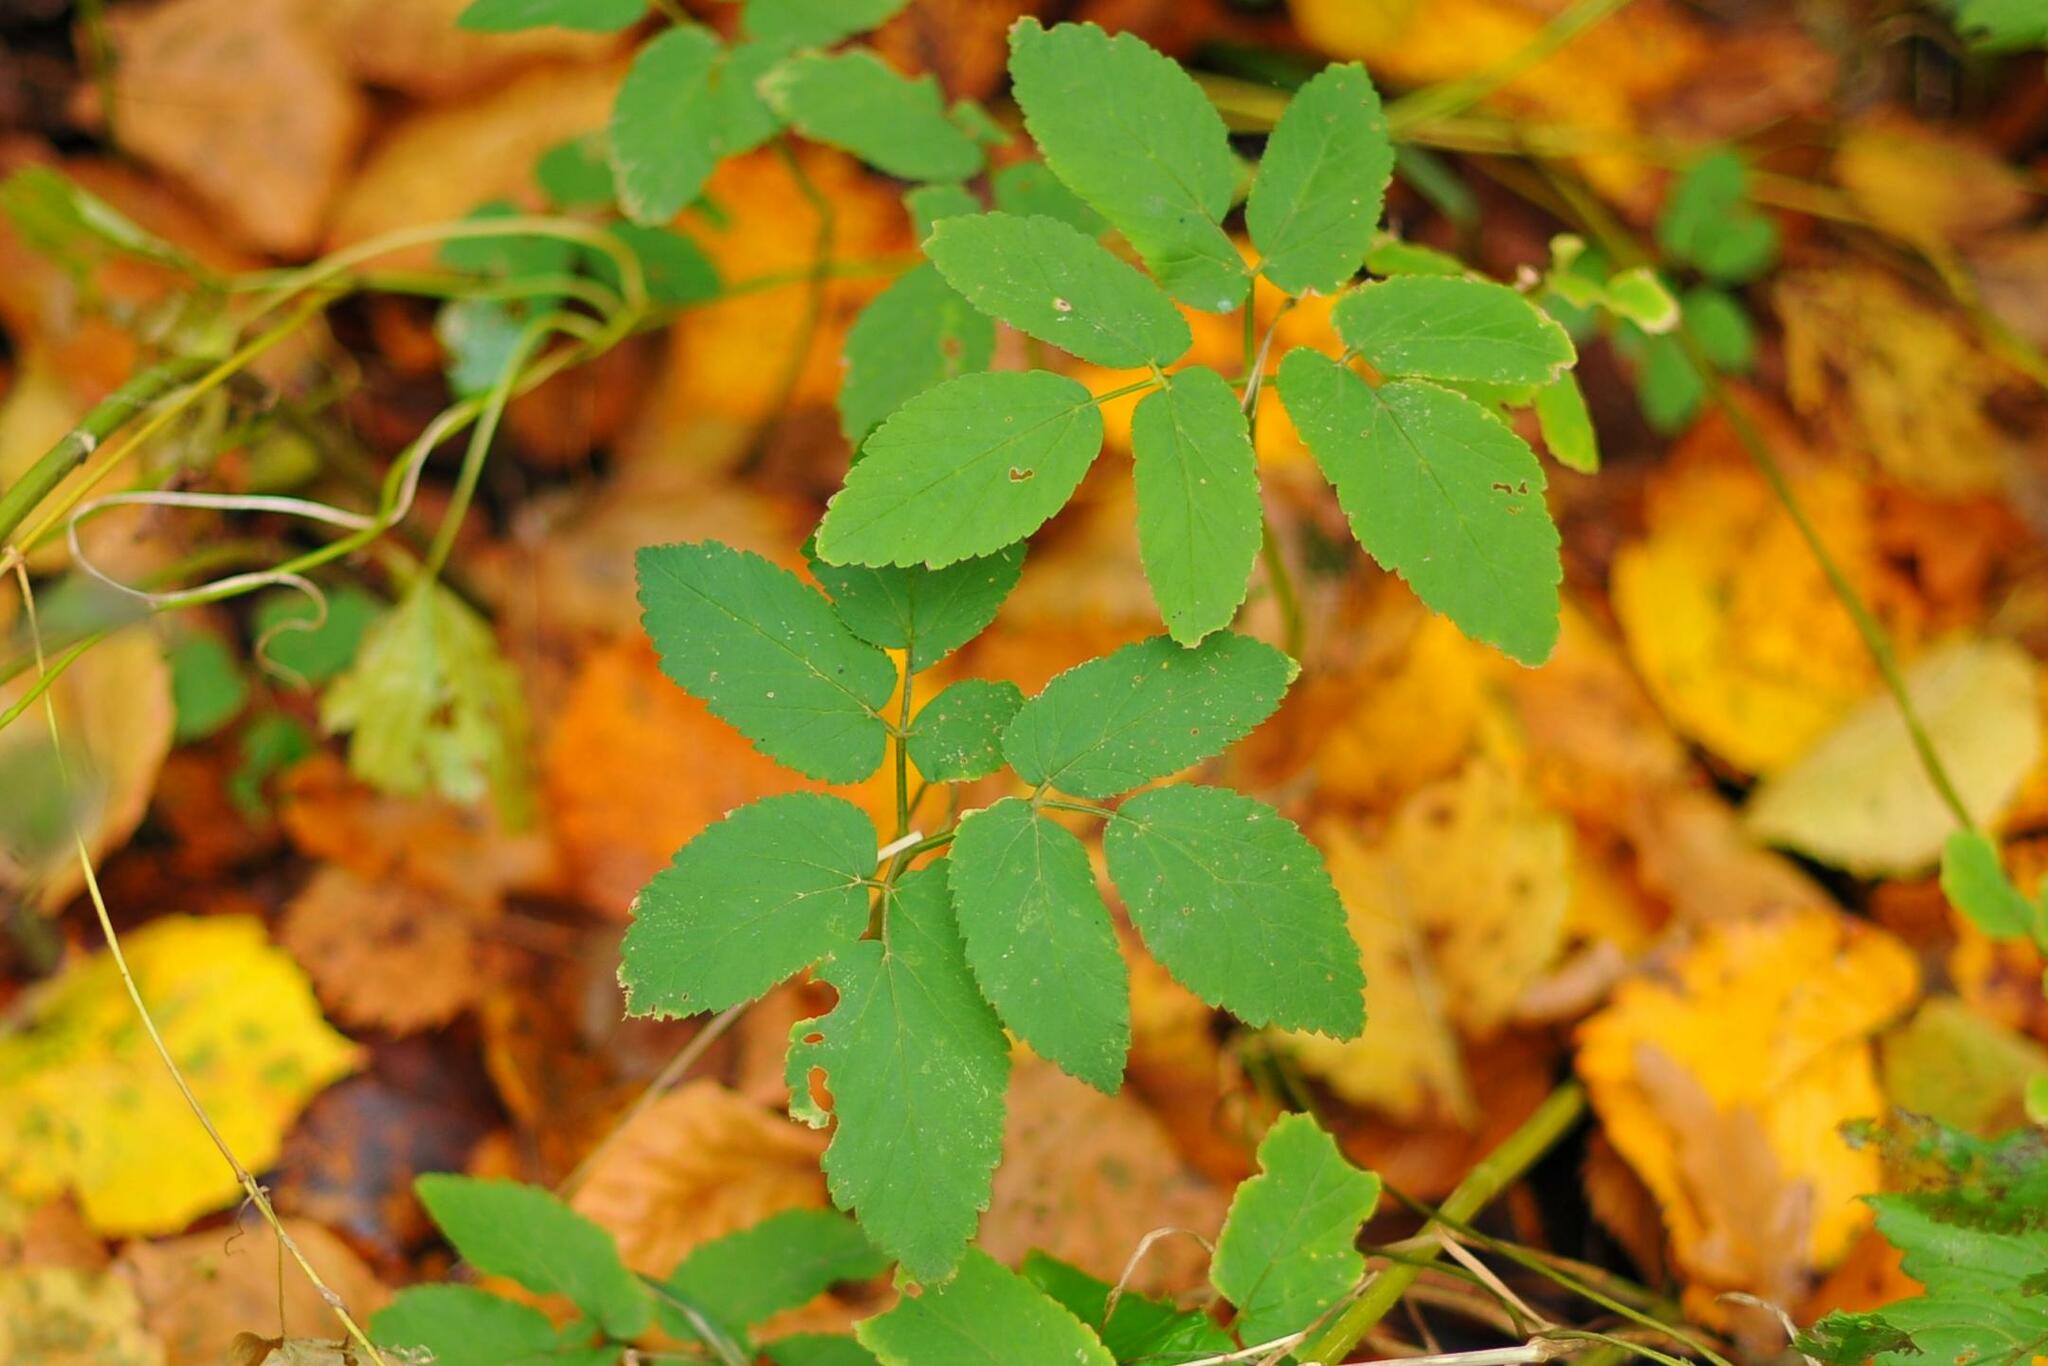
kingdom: Plantae
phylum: Tracheophyta
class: Magnoliopsida
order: Apiales
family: Apiaceae
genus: Aegopodium
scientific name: Aegopodium podagraria
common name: Ground-elder
